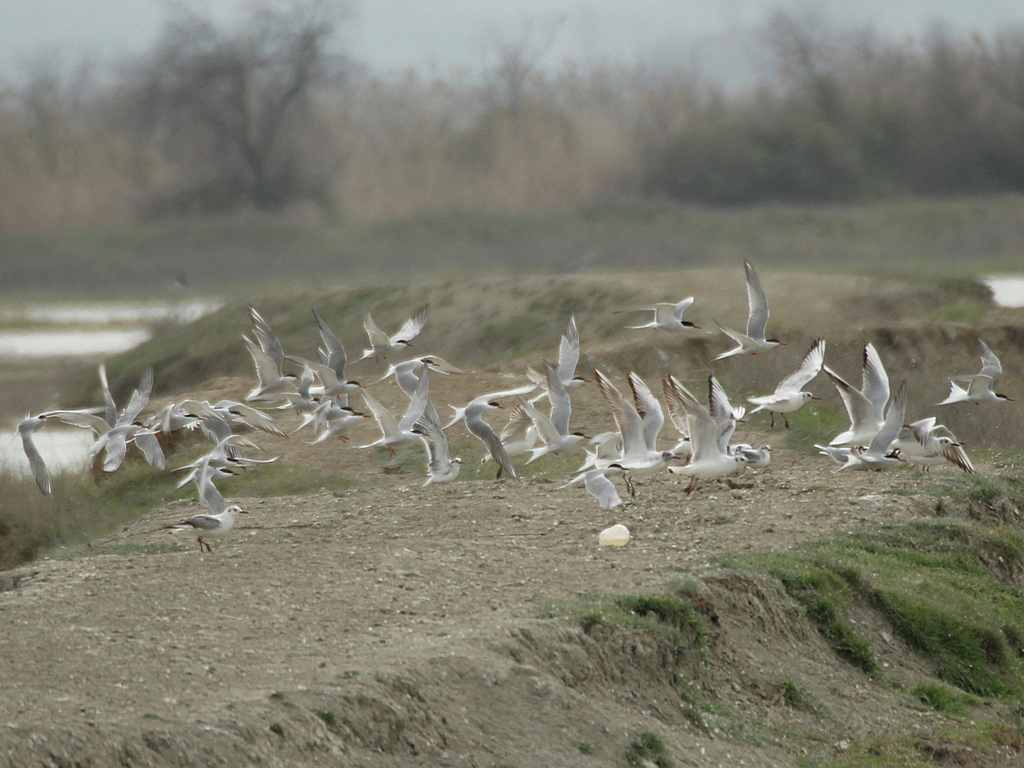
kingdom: Animalia
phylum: Chordata
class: Aves
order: Charadriiformes
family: Laridae
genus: Sterna
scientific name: Sterna hirundo
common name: Common tern
